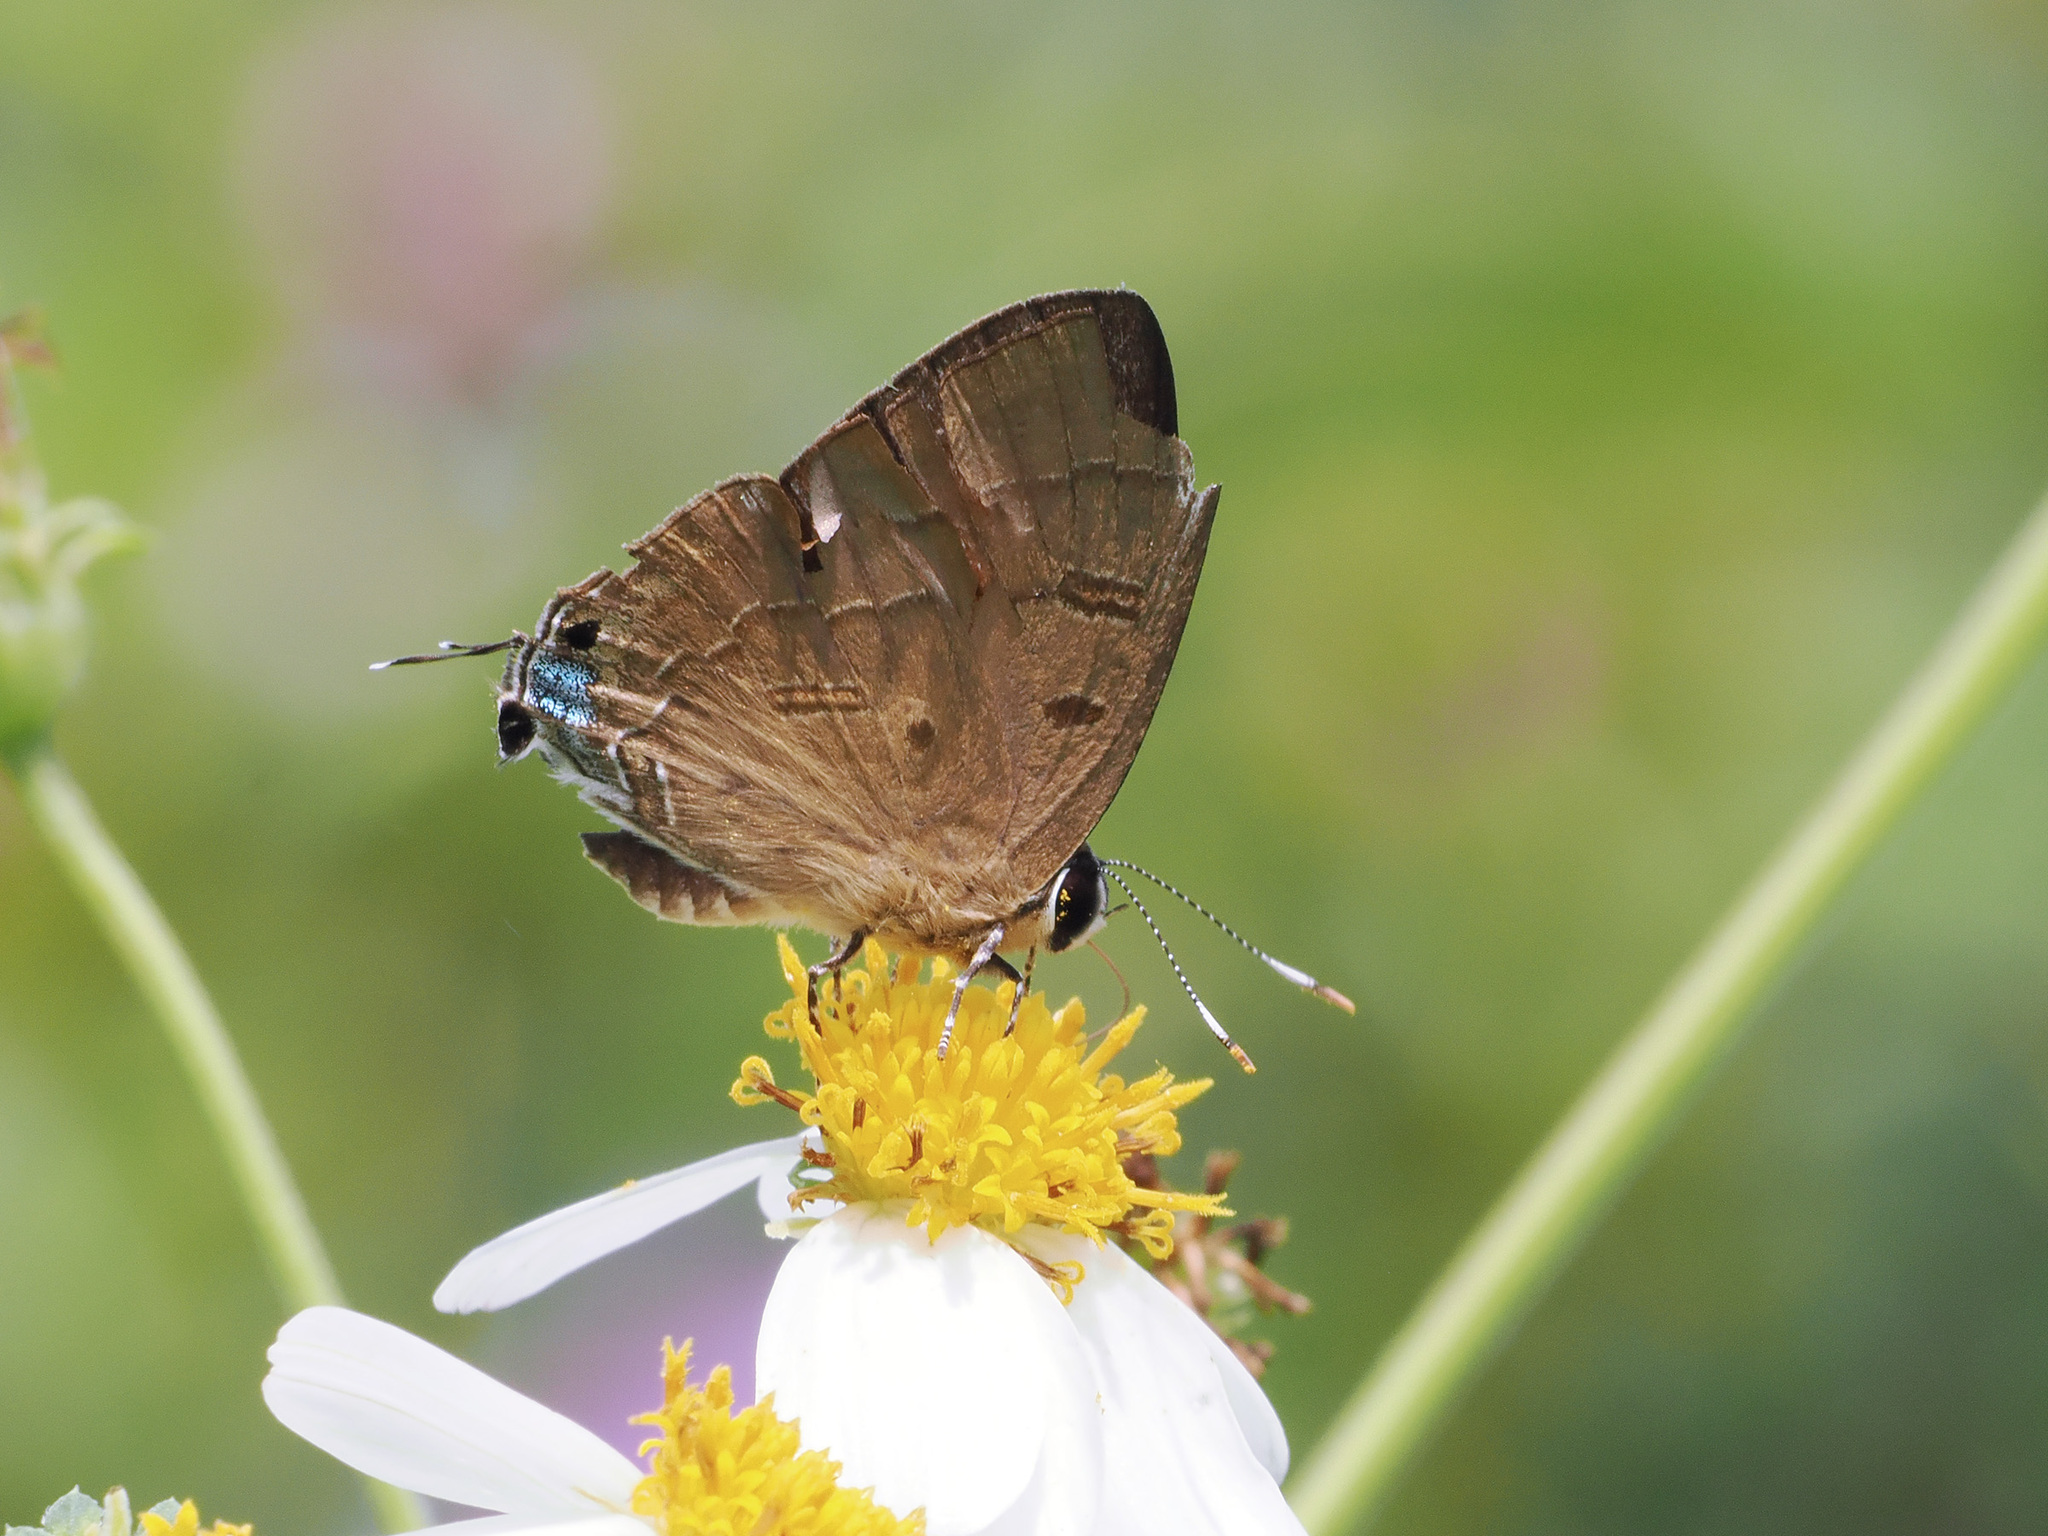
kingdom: Animalia
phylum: Arthropoda
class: Insecta
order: Lepidoptera
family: Lycaenidae
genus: Rapala
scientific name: Rapala pheretima
